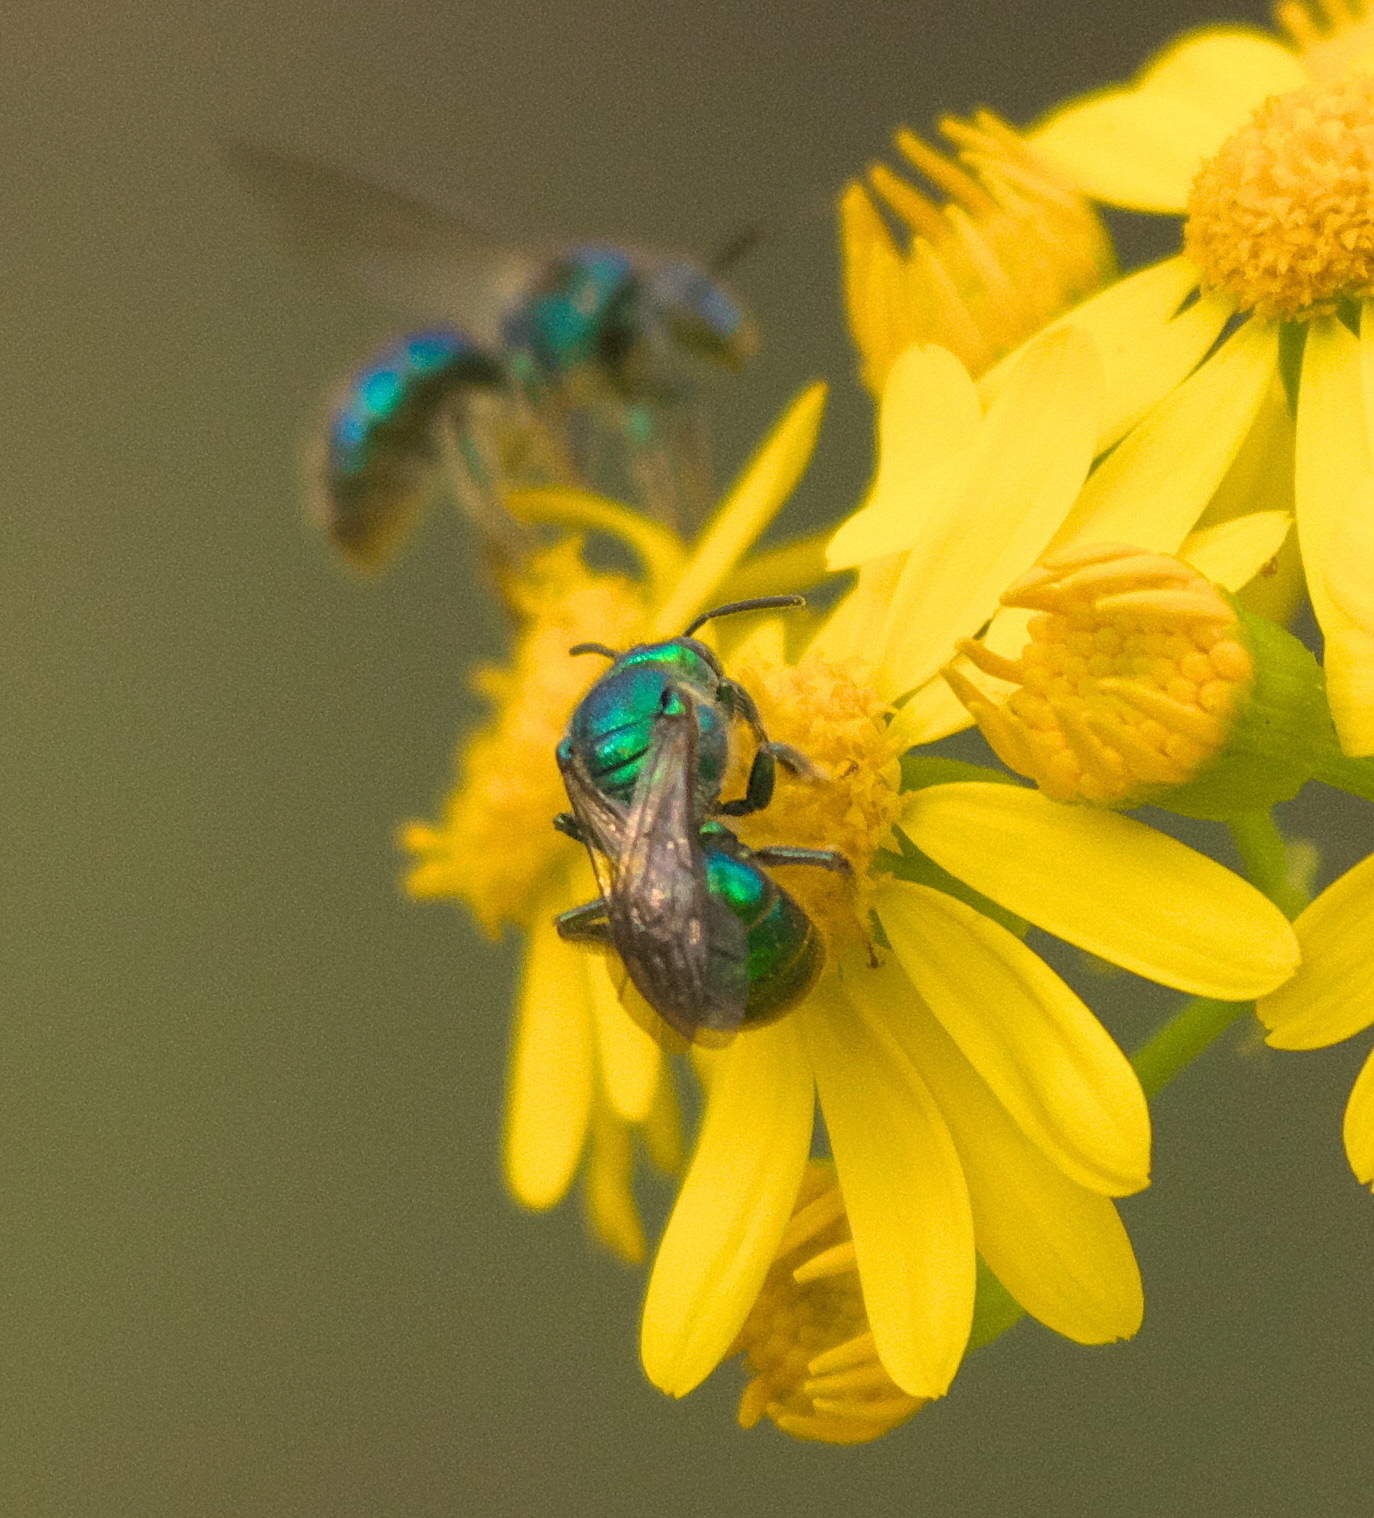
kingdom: Animalia
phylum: Arthropoda
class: Insecta
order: Hymenoptera
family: Halictidae
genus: Augochlora
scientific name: Augochlora pura
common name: Pure green sweat bee
